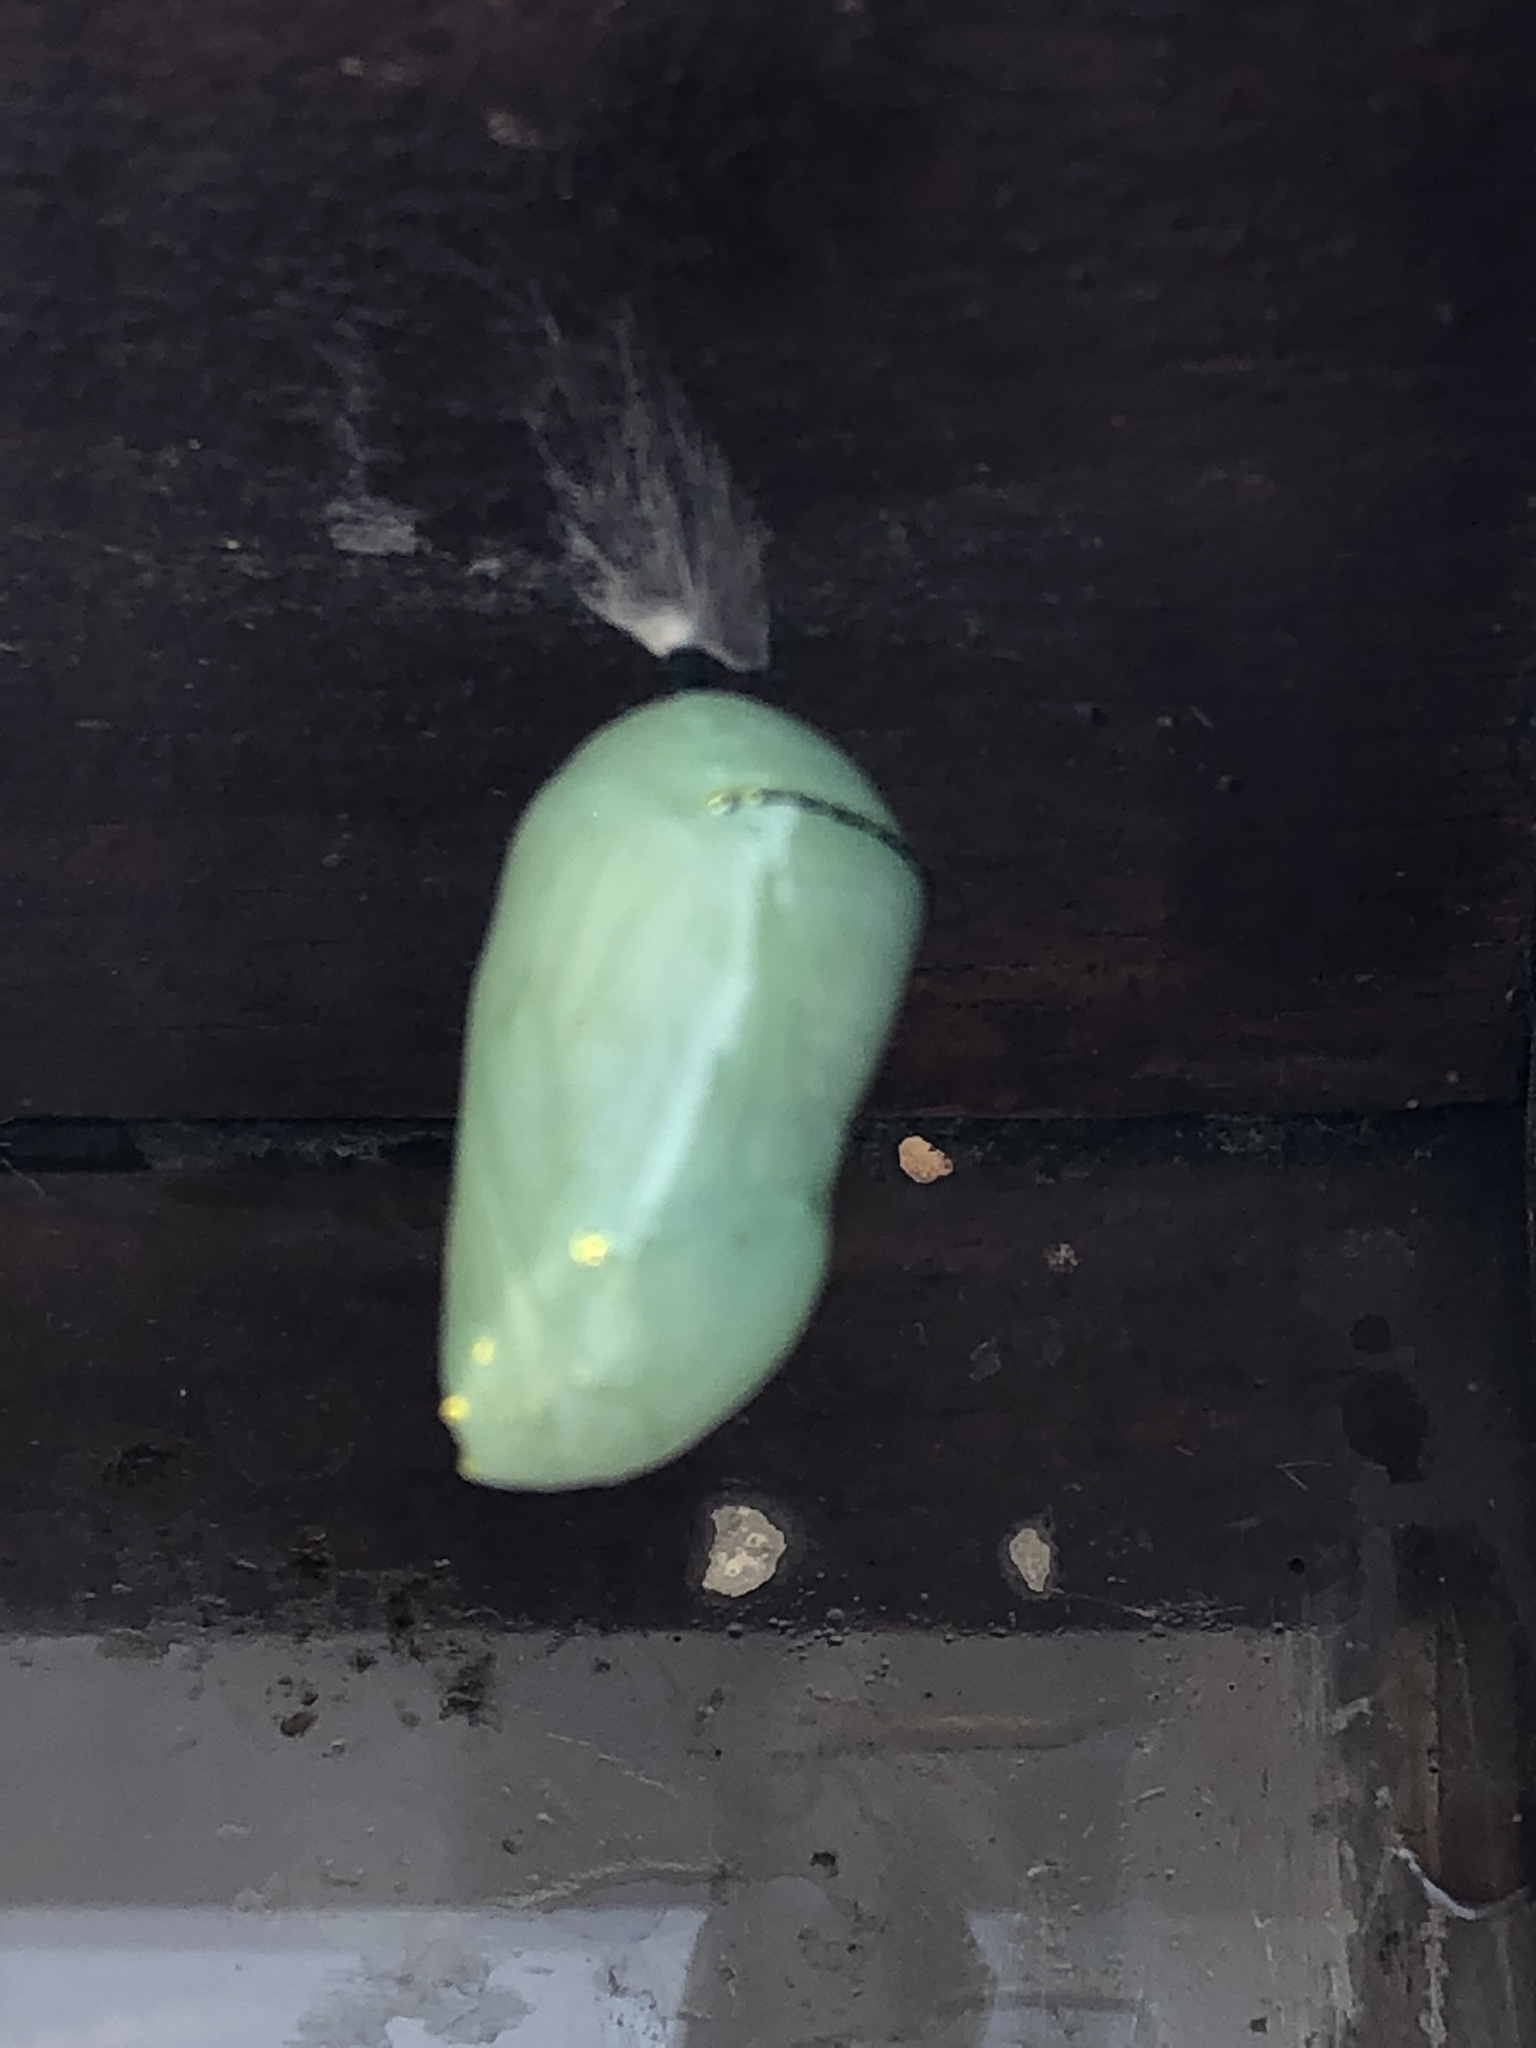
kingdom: Animalia
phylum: Arthropoda
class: Insecta
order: Lepidoptera
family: Nymphalidae
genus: Danaus
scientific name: Danaus plexippus
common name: Monarch
